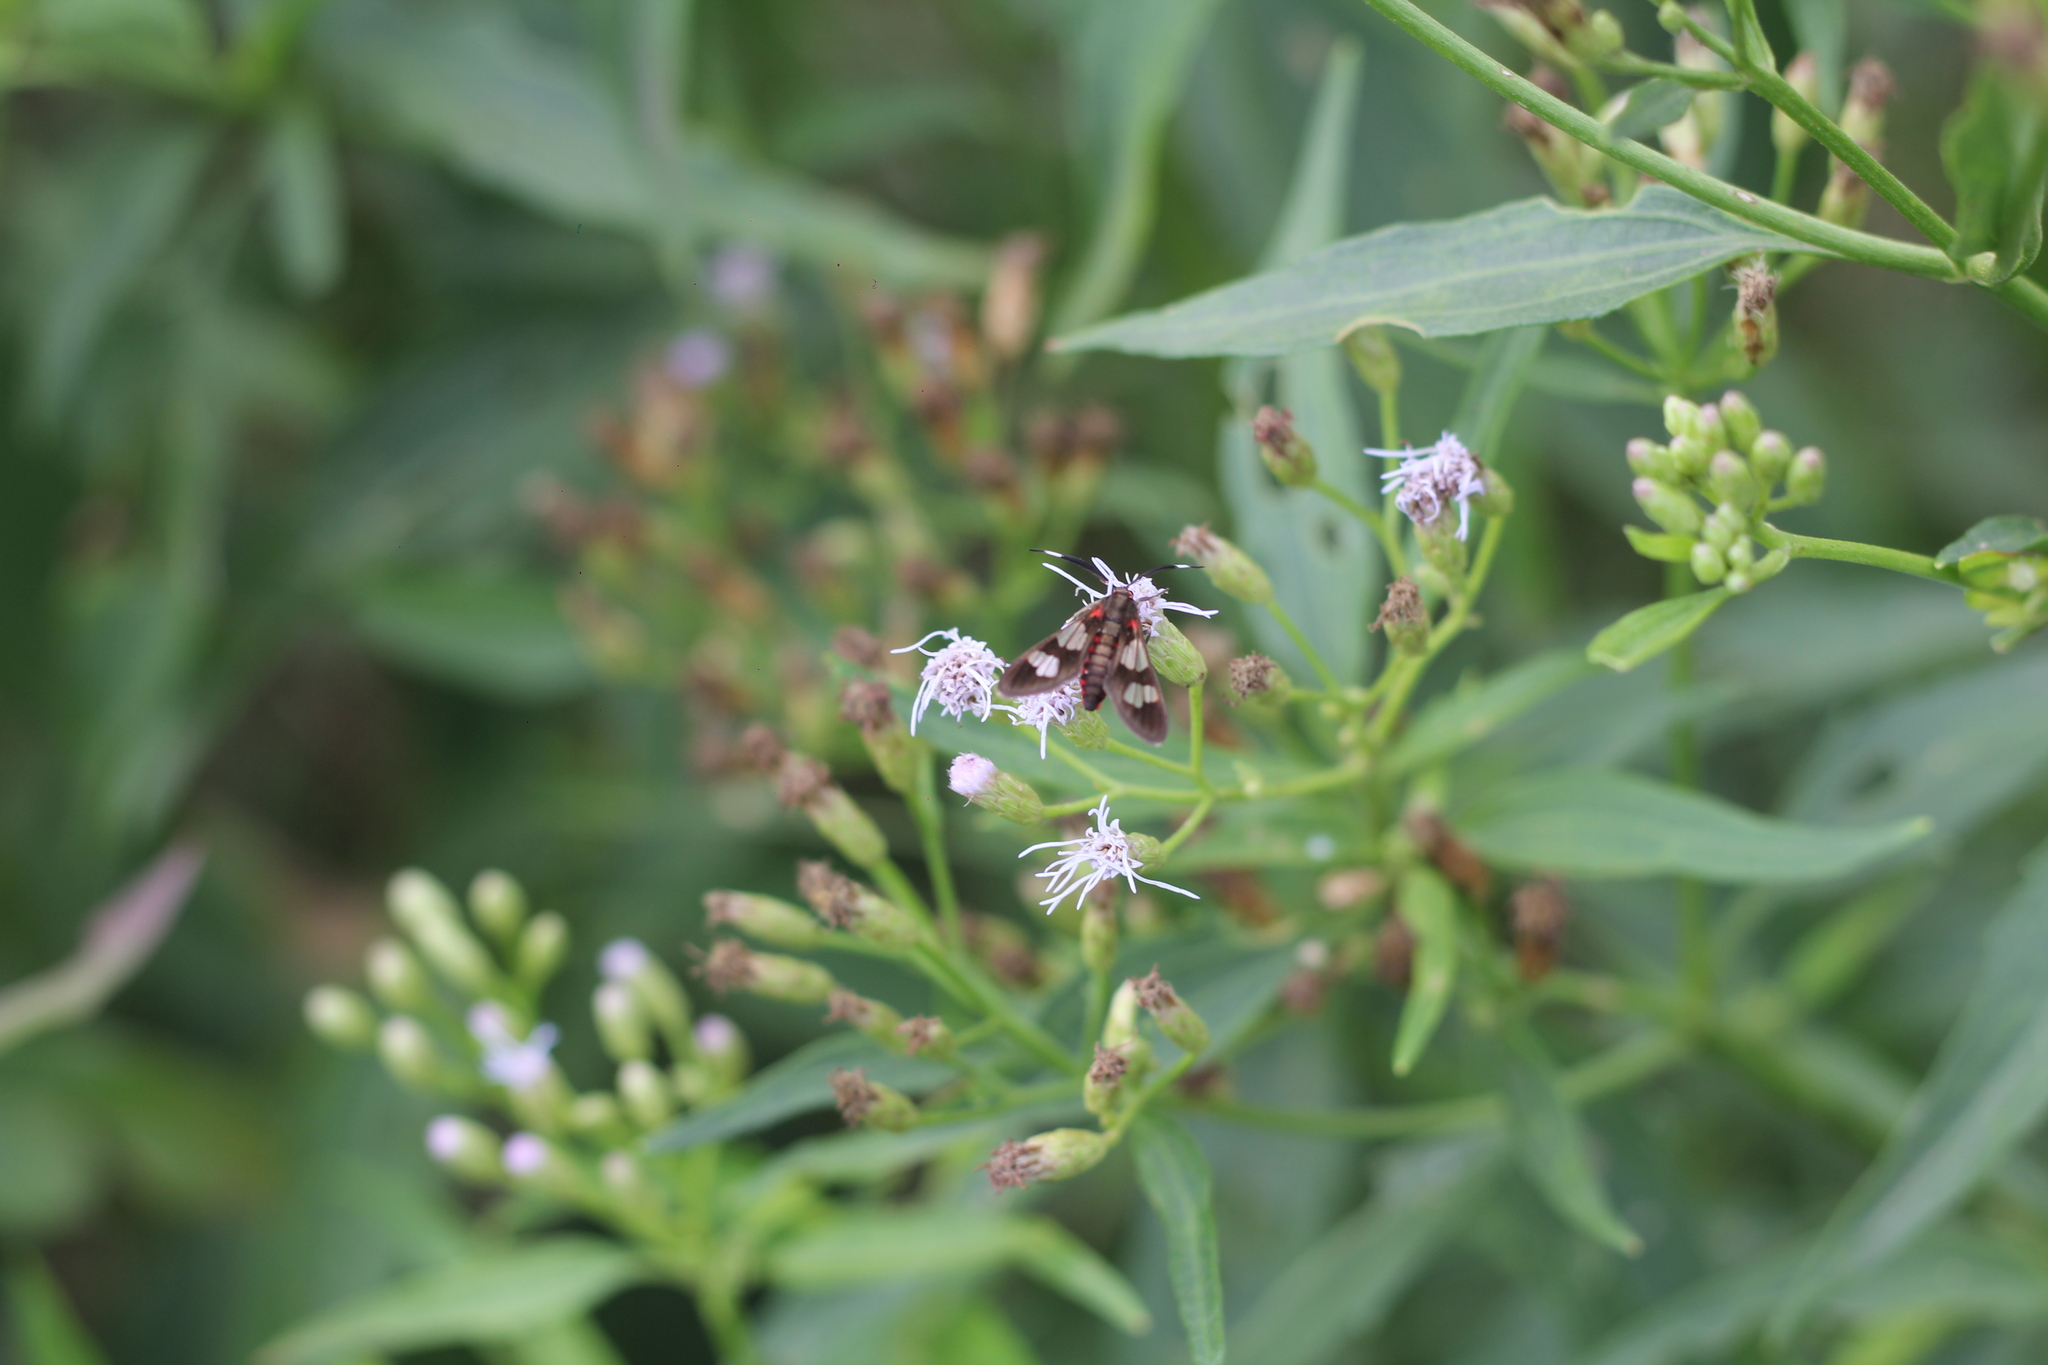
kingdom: Animalia
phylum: Arthropoda
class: Insecta
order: Lepidoptera
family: Erebidae
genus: Phoenicoprocta
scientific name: Phoenicoprocta teda
